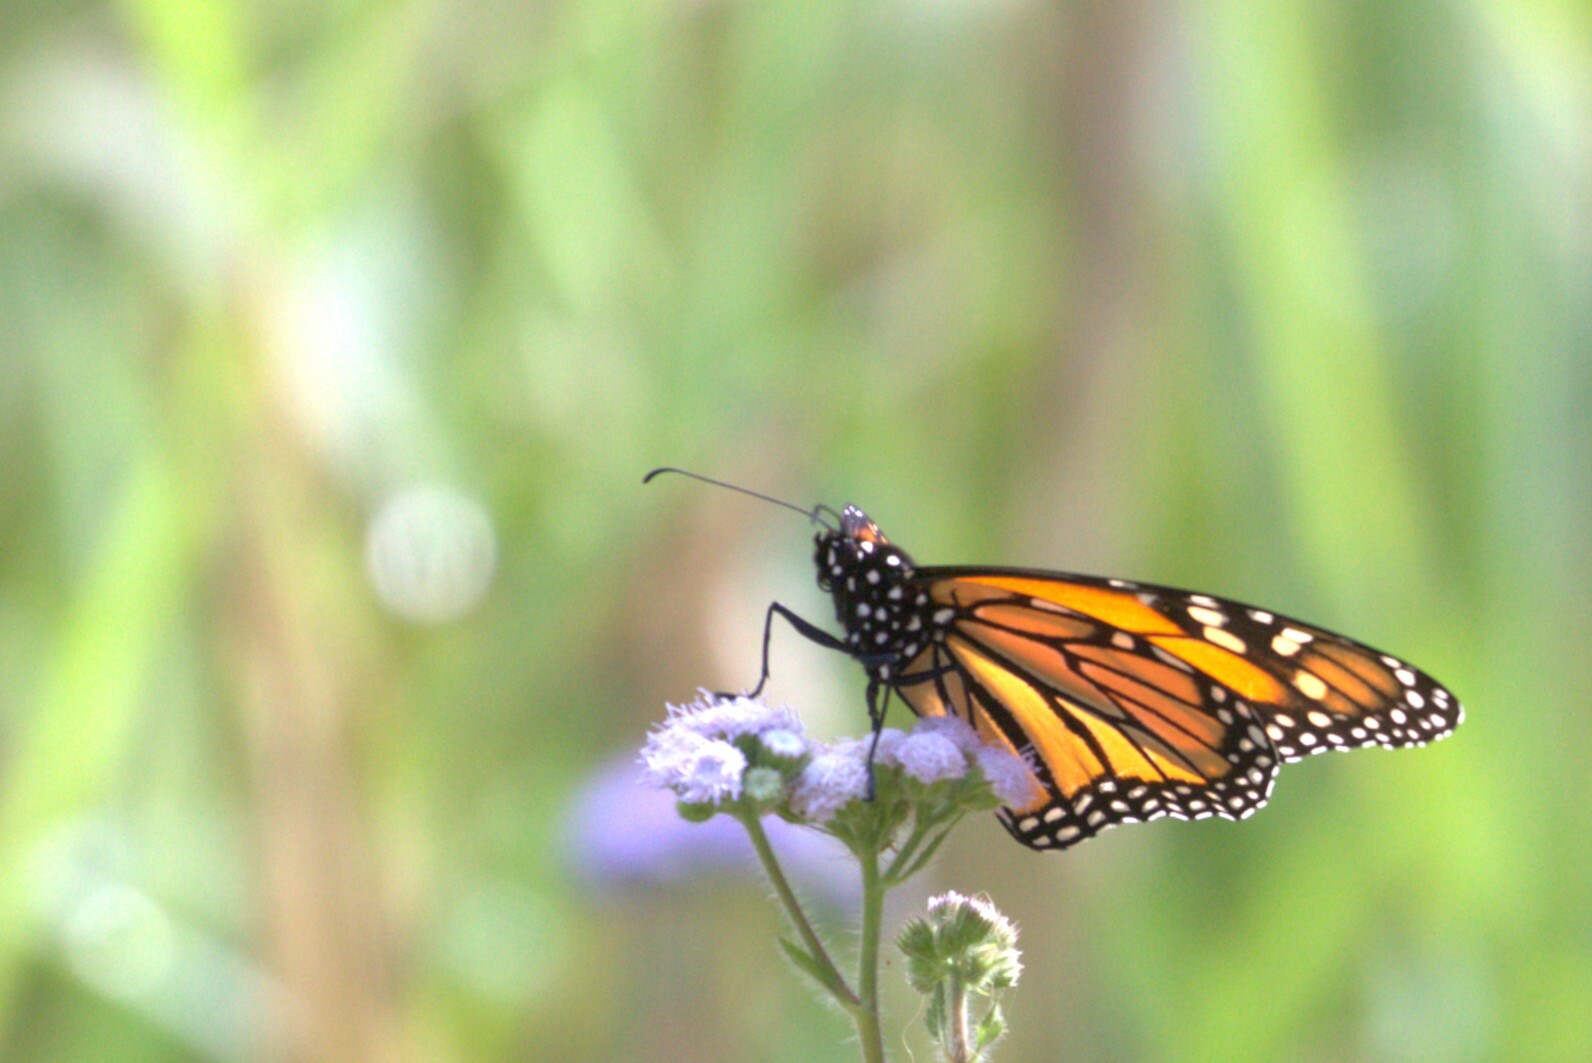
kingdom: Animalia
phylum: Arthropoda
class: Insecta
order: Lepidoptera
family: Nymphalidae
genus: Danaus
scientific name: Danaus plexippus
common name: Monarch
